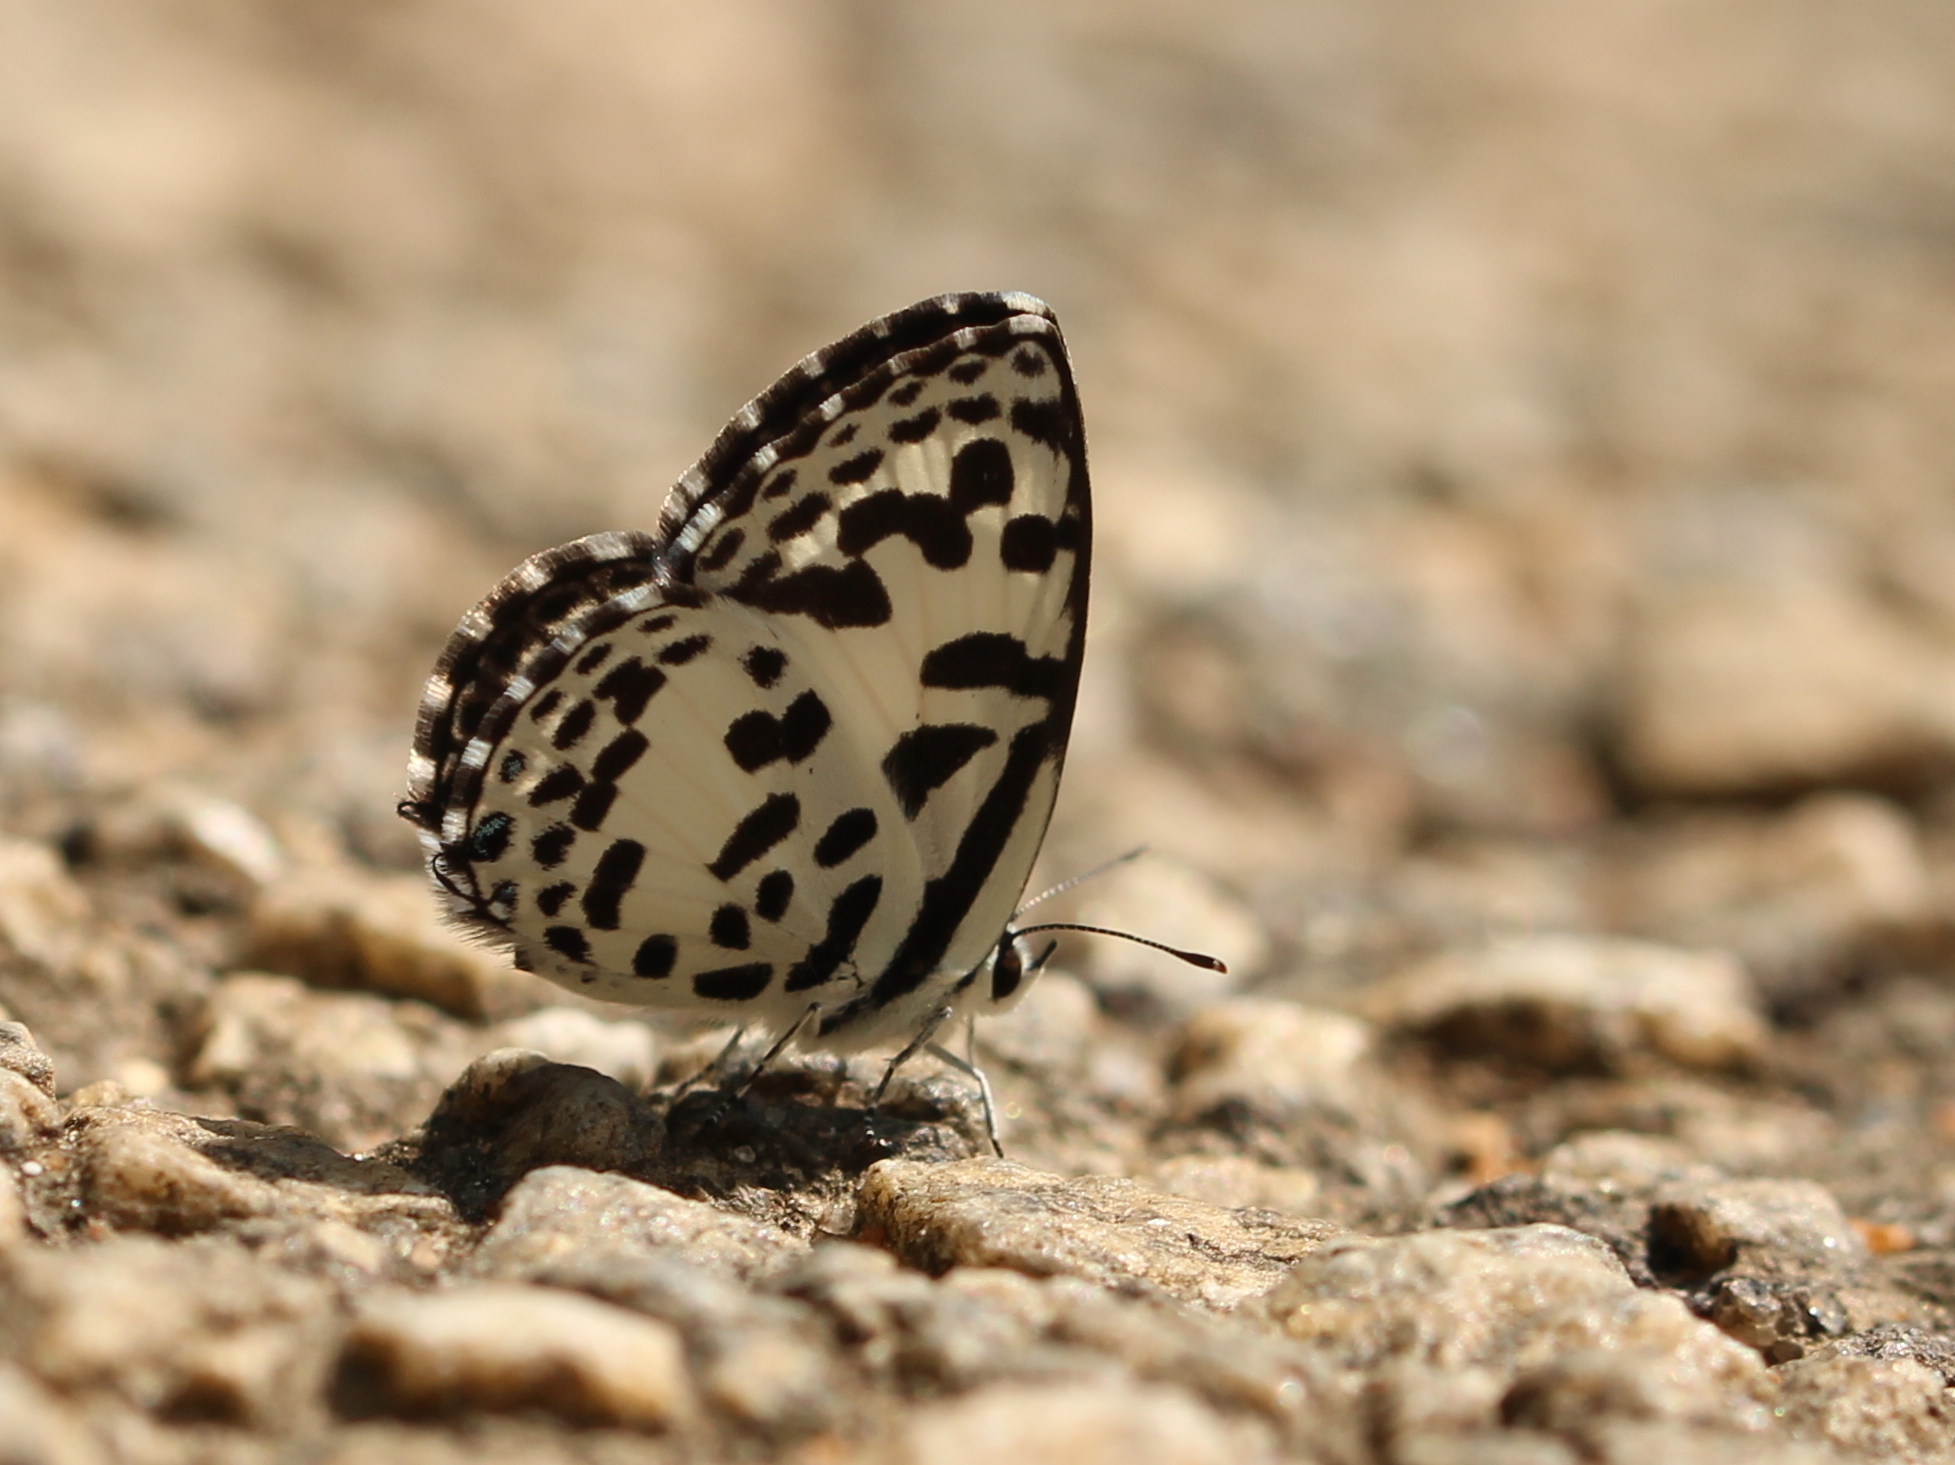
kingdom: Animalia
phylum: Arthropoda
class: Insecta
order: Lepidoptera
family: Lycaenidae
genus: Castalius
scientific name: Castalius rosimon
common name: Common pierrot
